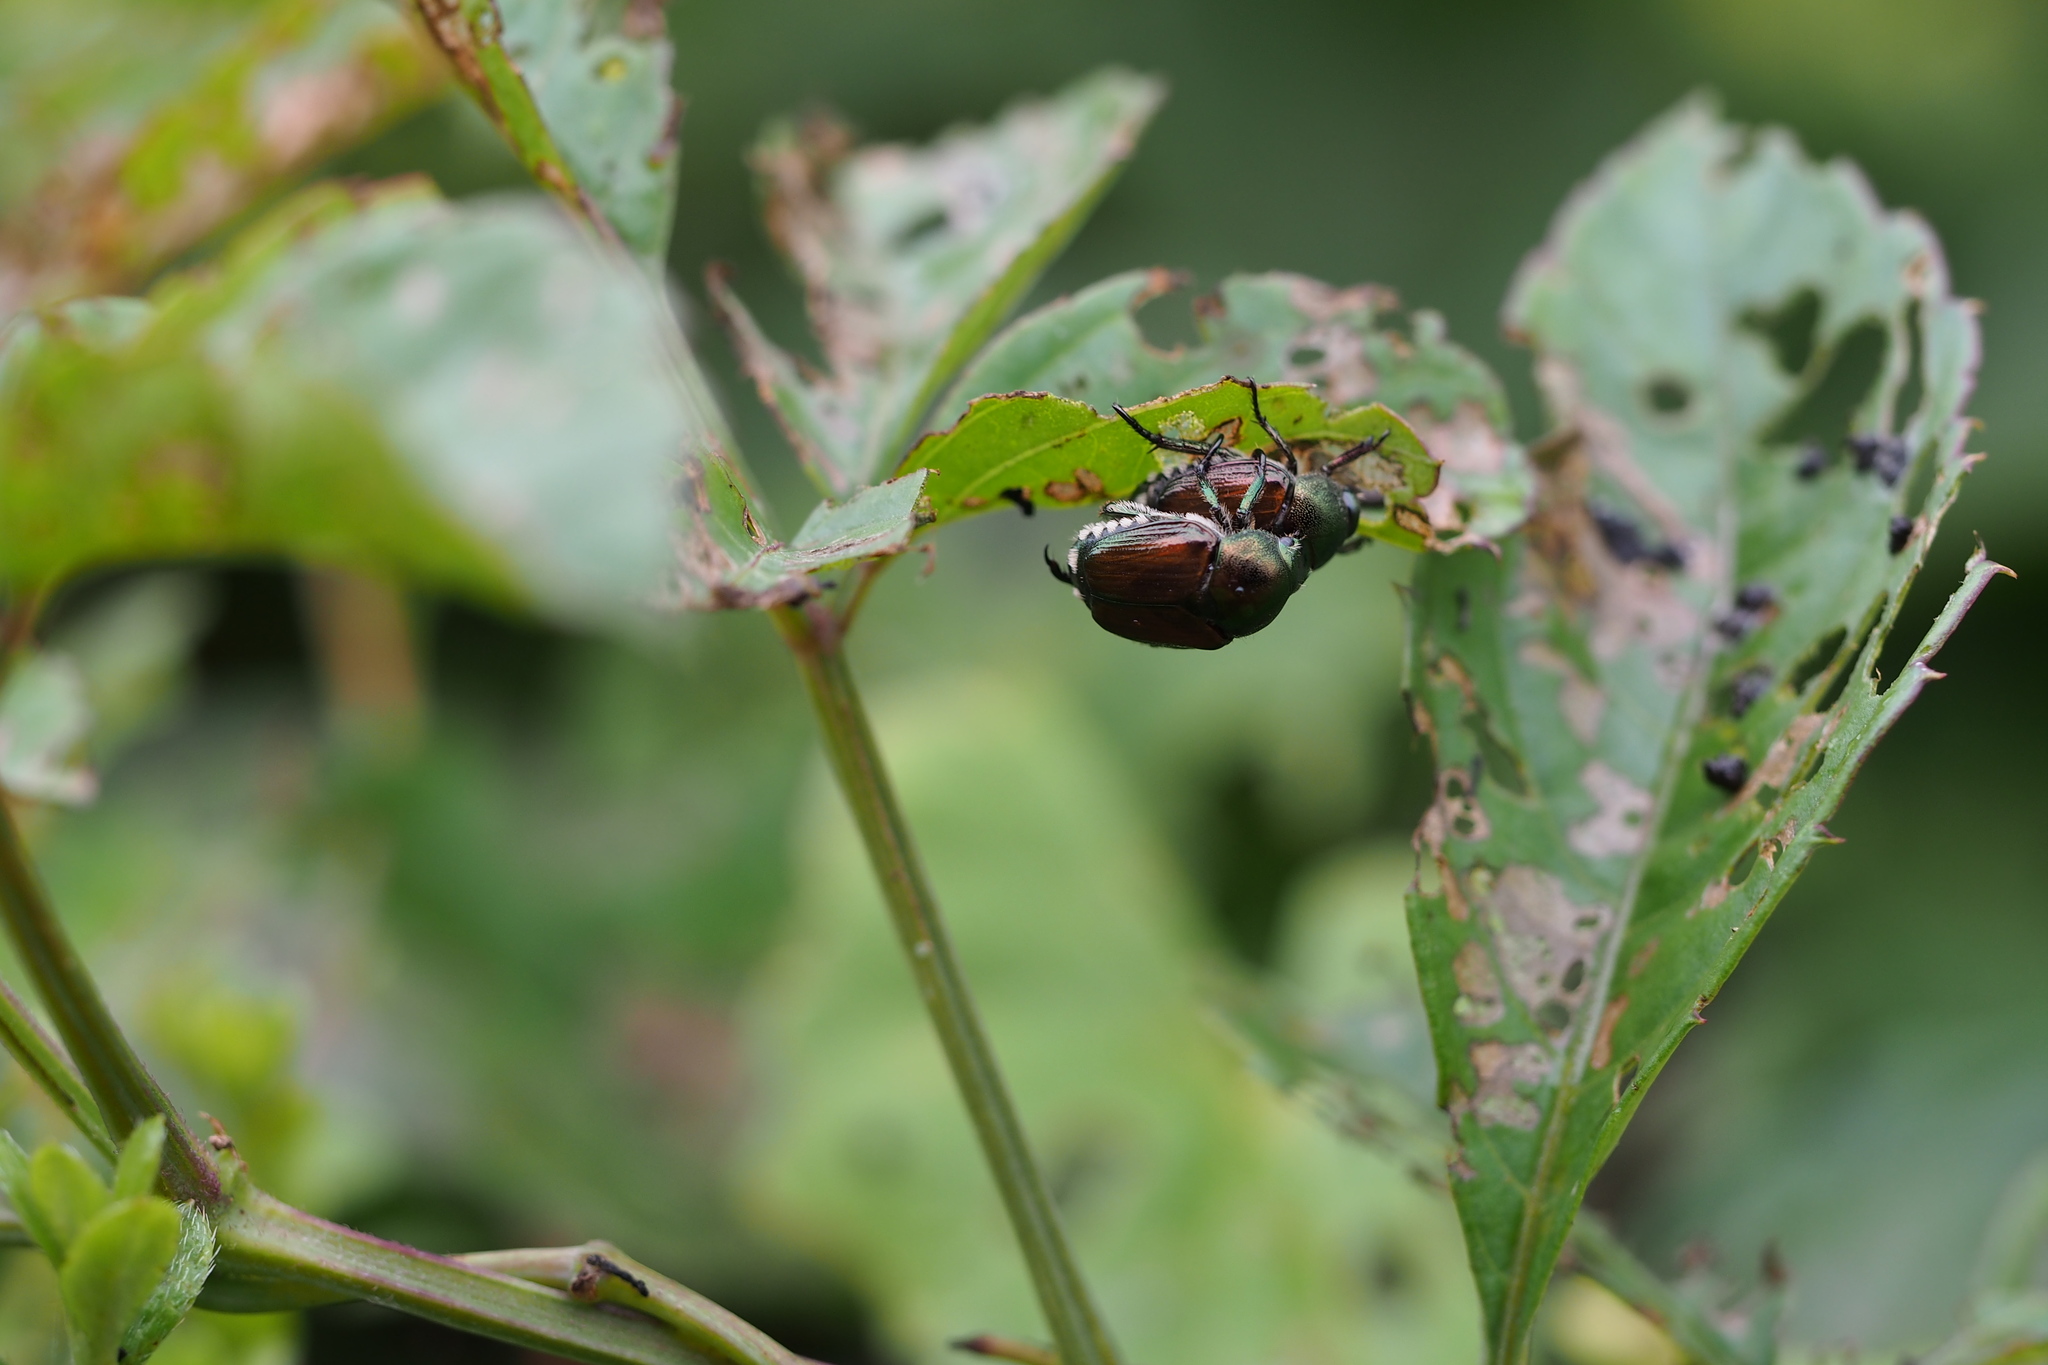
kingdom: Animalia
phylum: Arthropoda
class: Insecta
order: Coleoptera
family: Scarabaeidae
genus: Popillia
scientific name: Popillia japonica
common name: Japanese beetle
